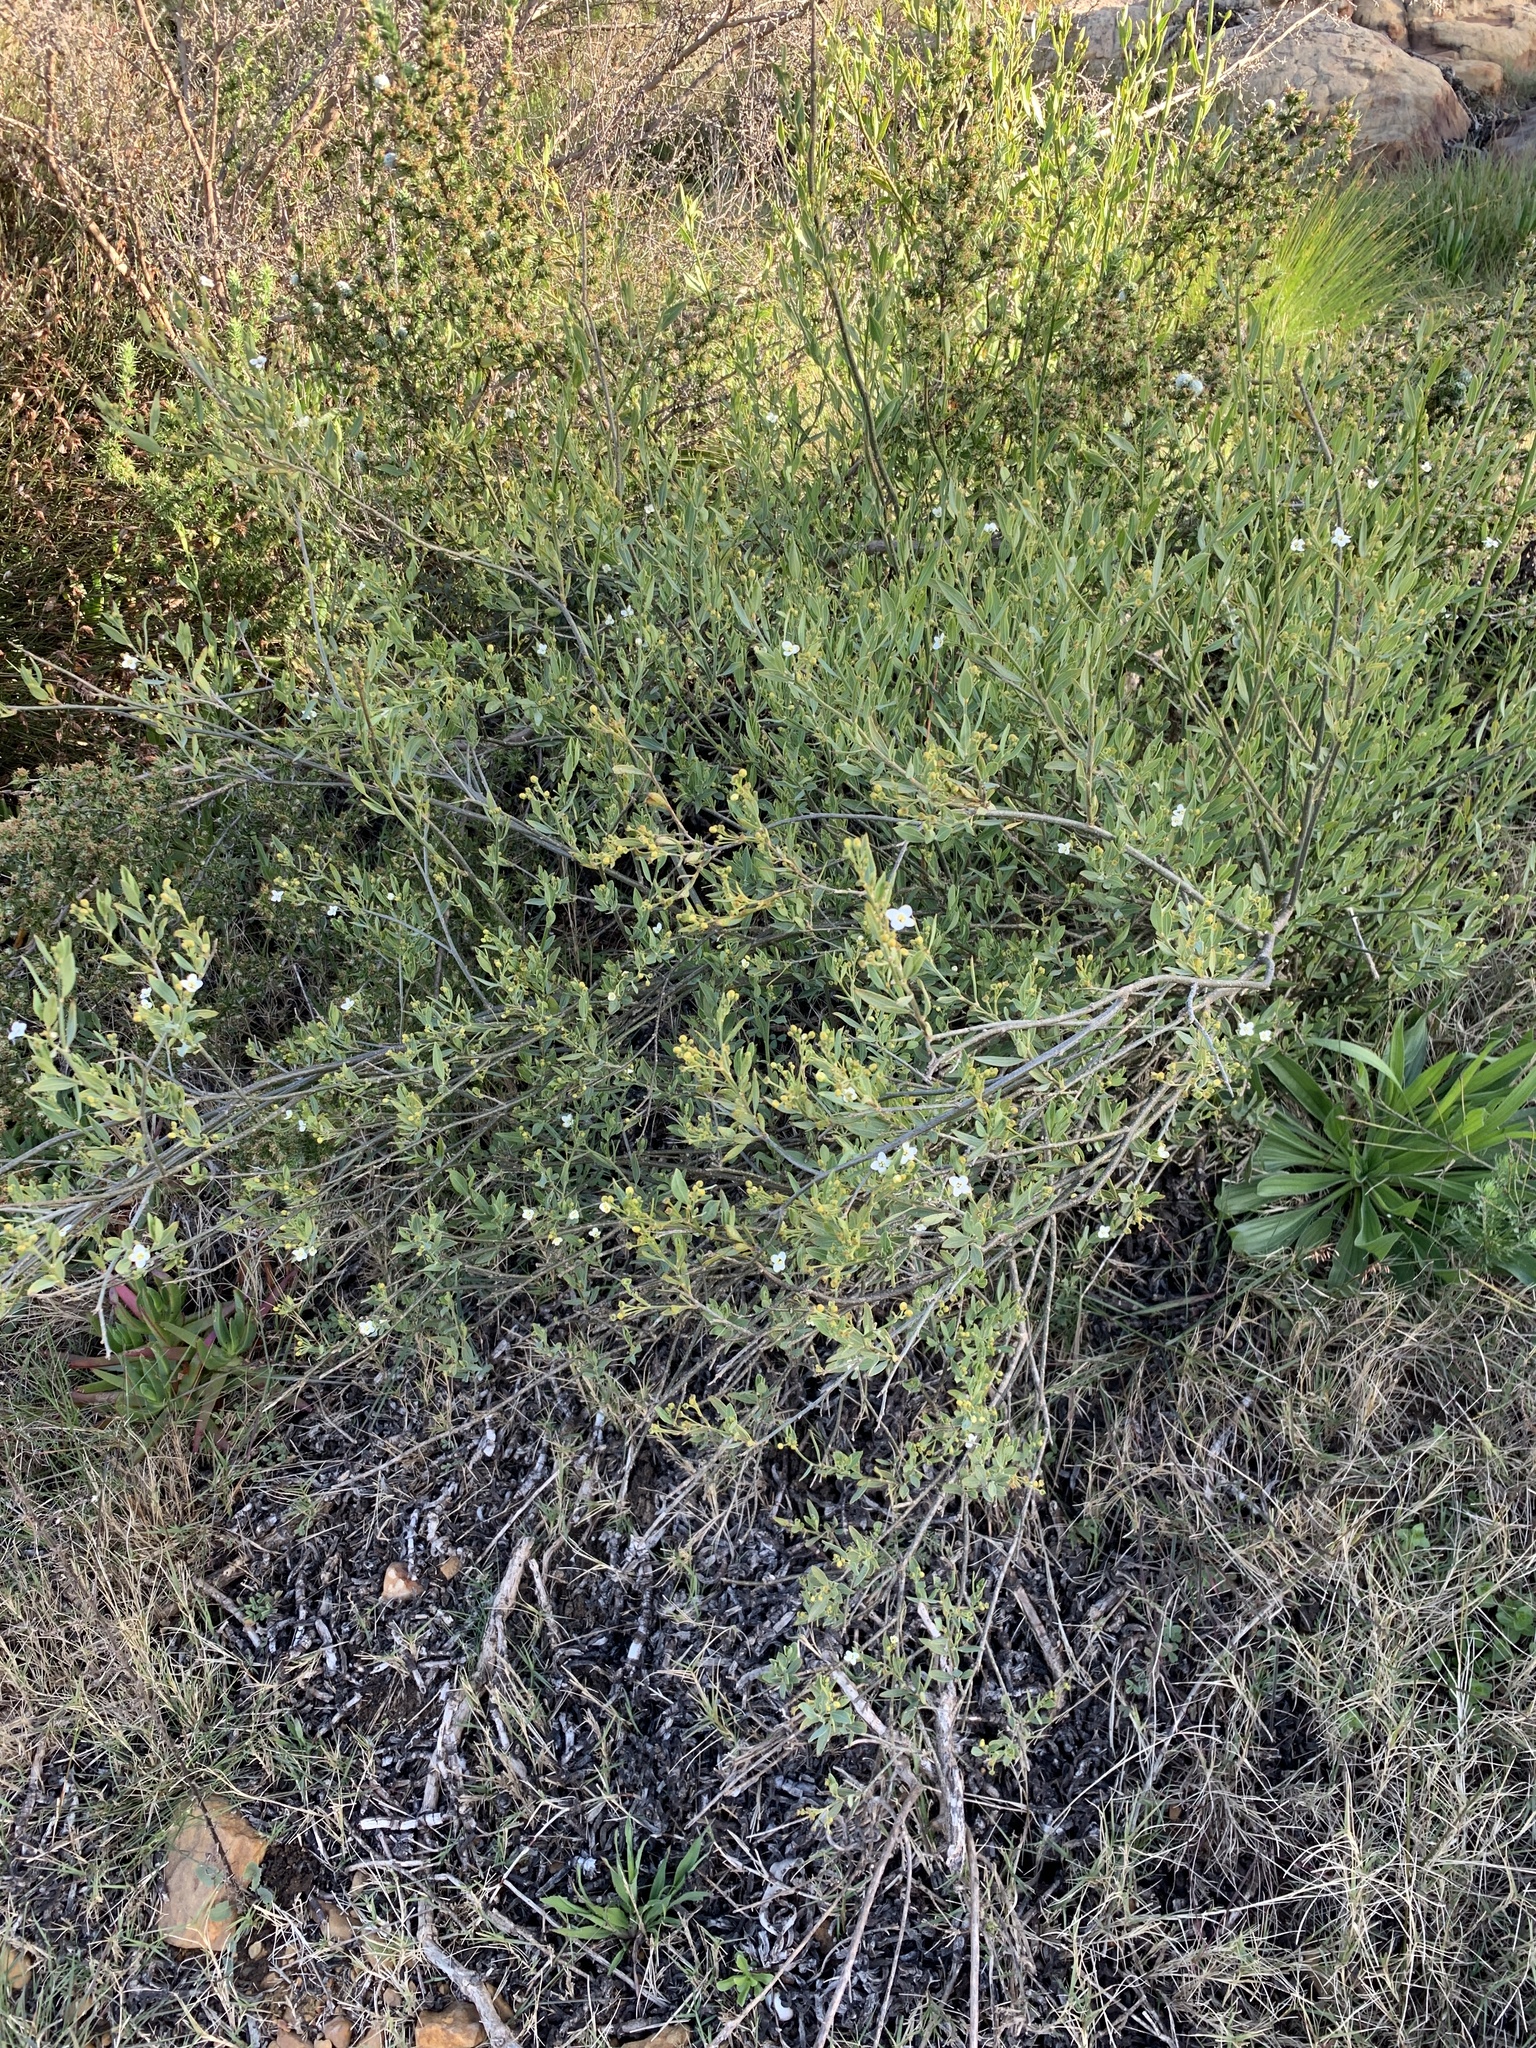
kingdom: Plantae
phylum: Tracheophyta
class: Magnoliopsida
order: Solanales
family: Montiniaceae
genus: Montinia
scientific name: Montinia caryophyllacea
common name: Wild clove-bush
